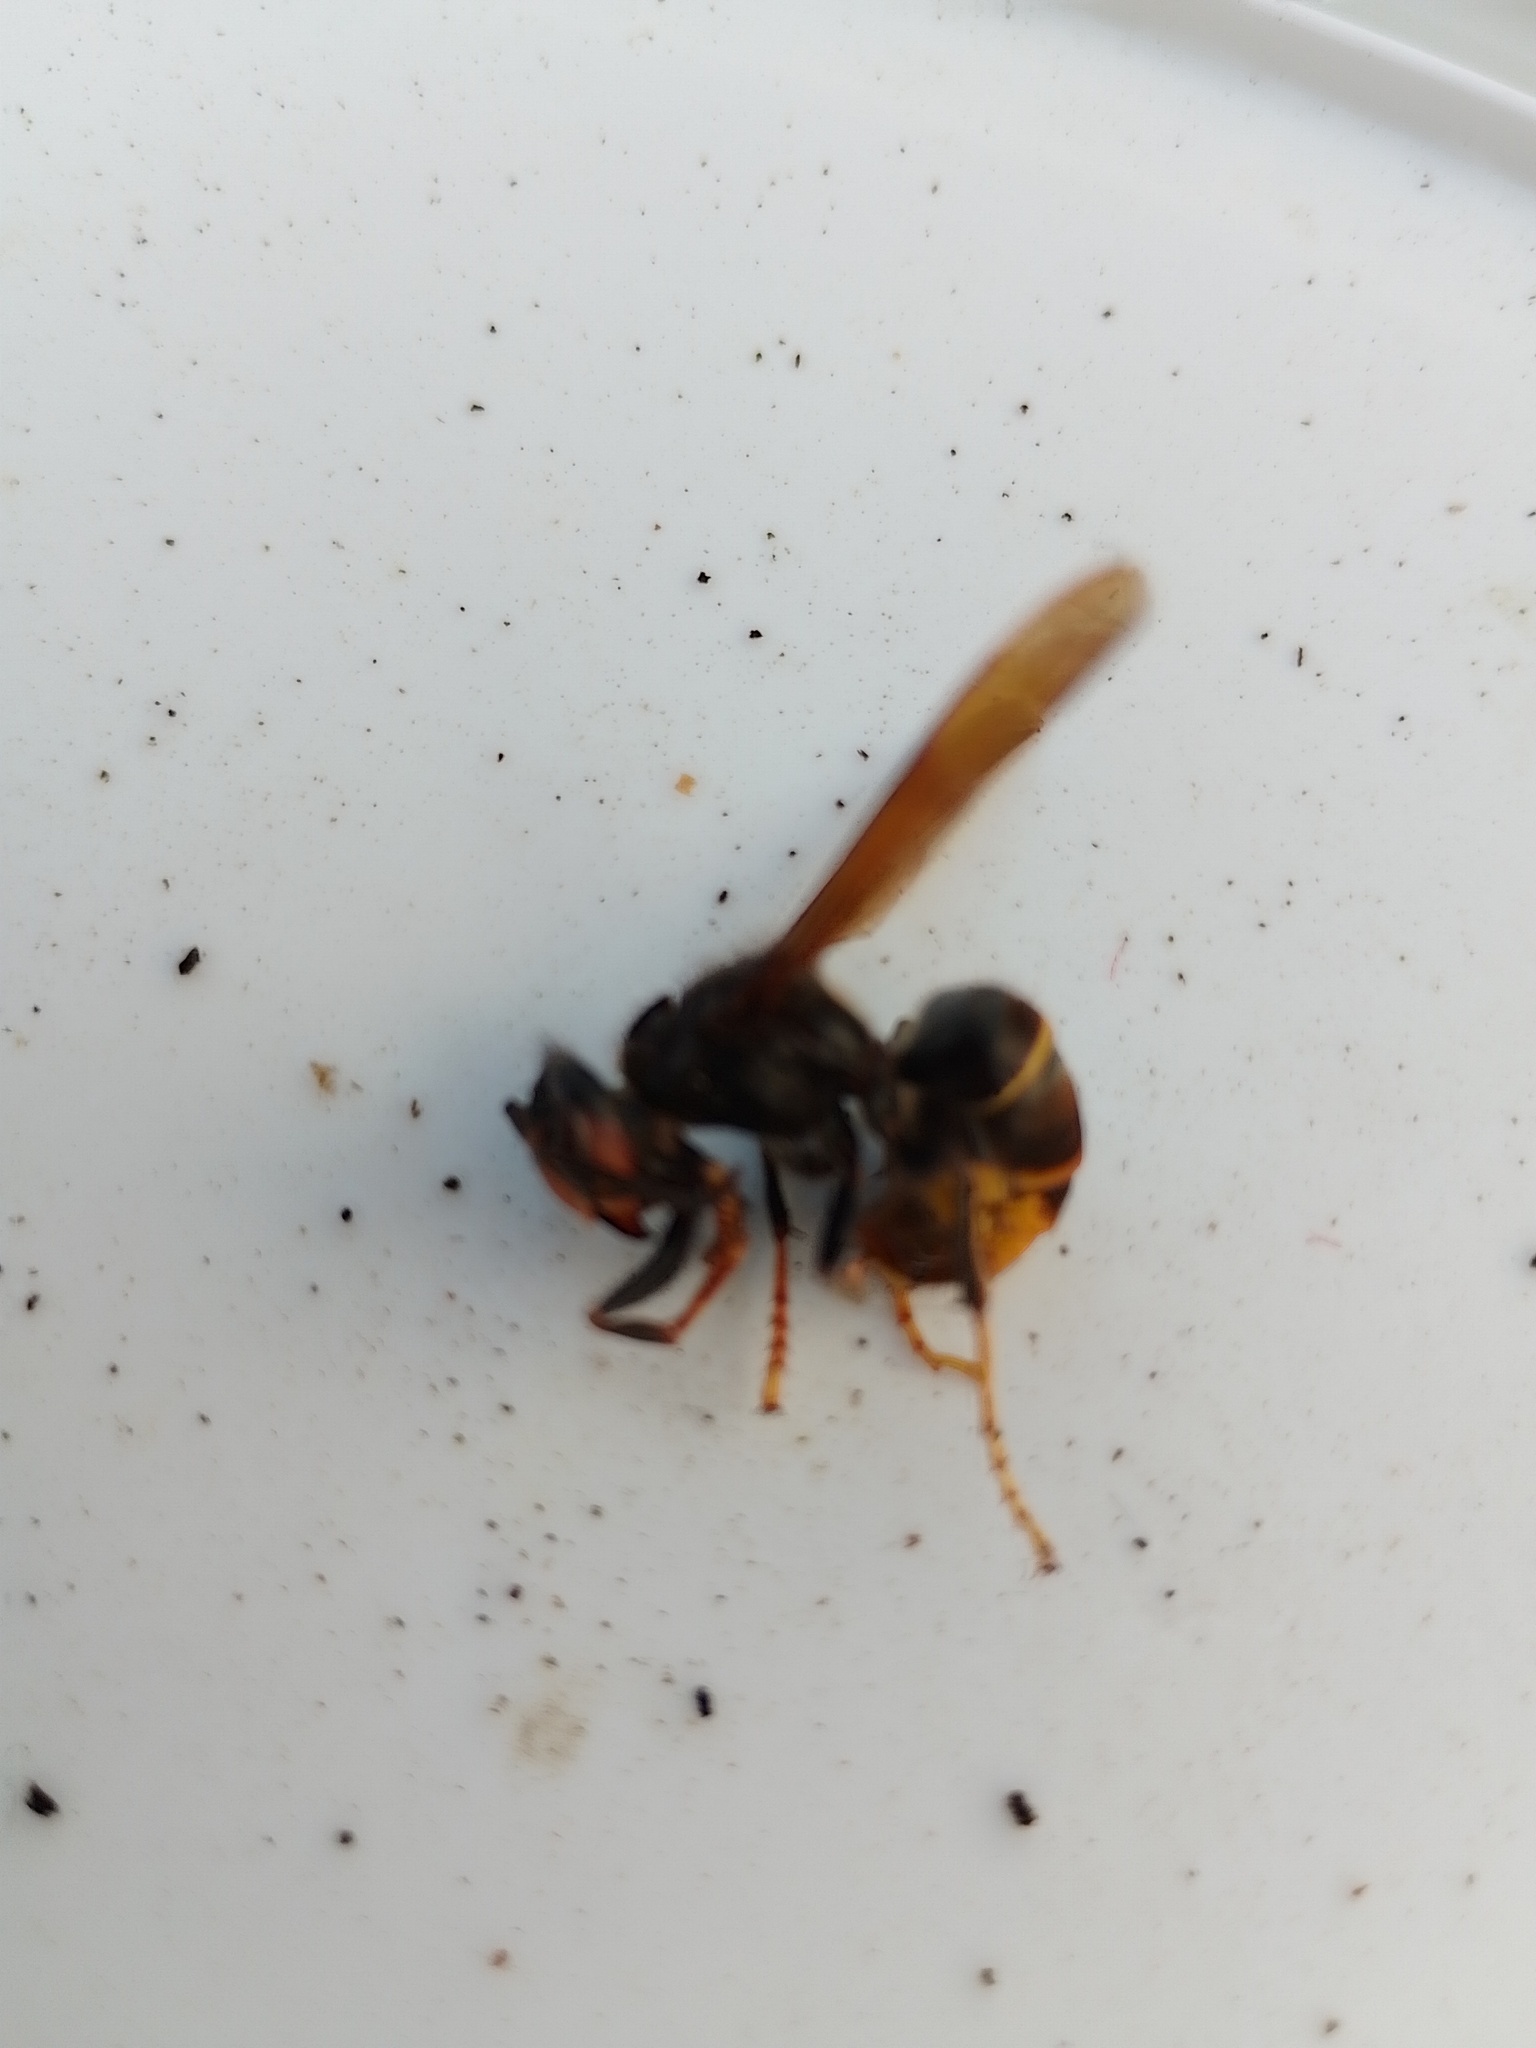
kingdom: Animalia
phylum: Arthropoda
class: Insecta
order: Hymenoptera
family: Vespidae
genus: Vespa
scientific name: Vespa velutina
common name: Asian hornet
